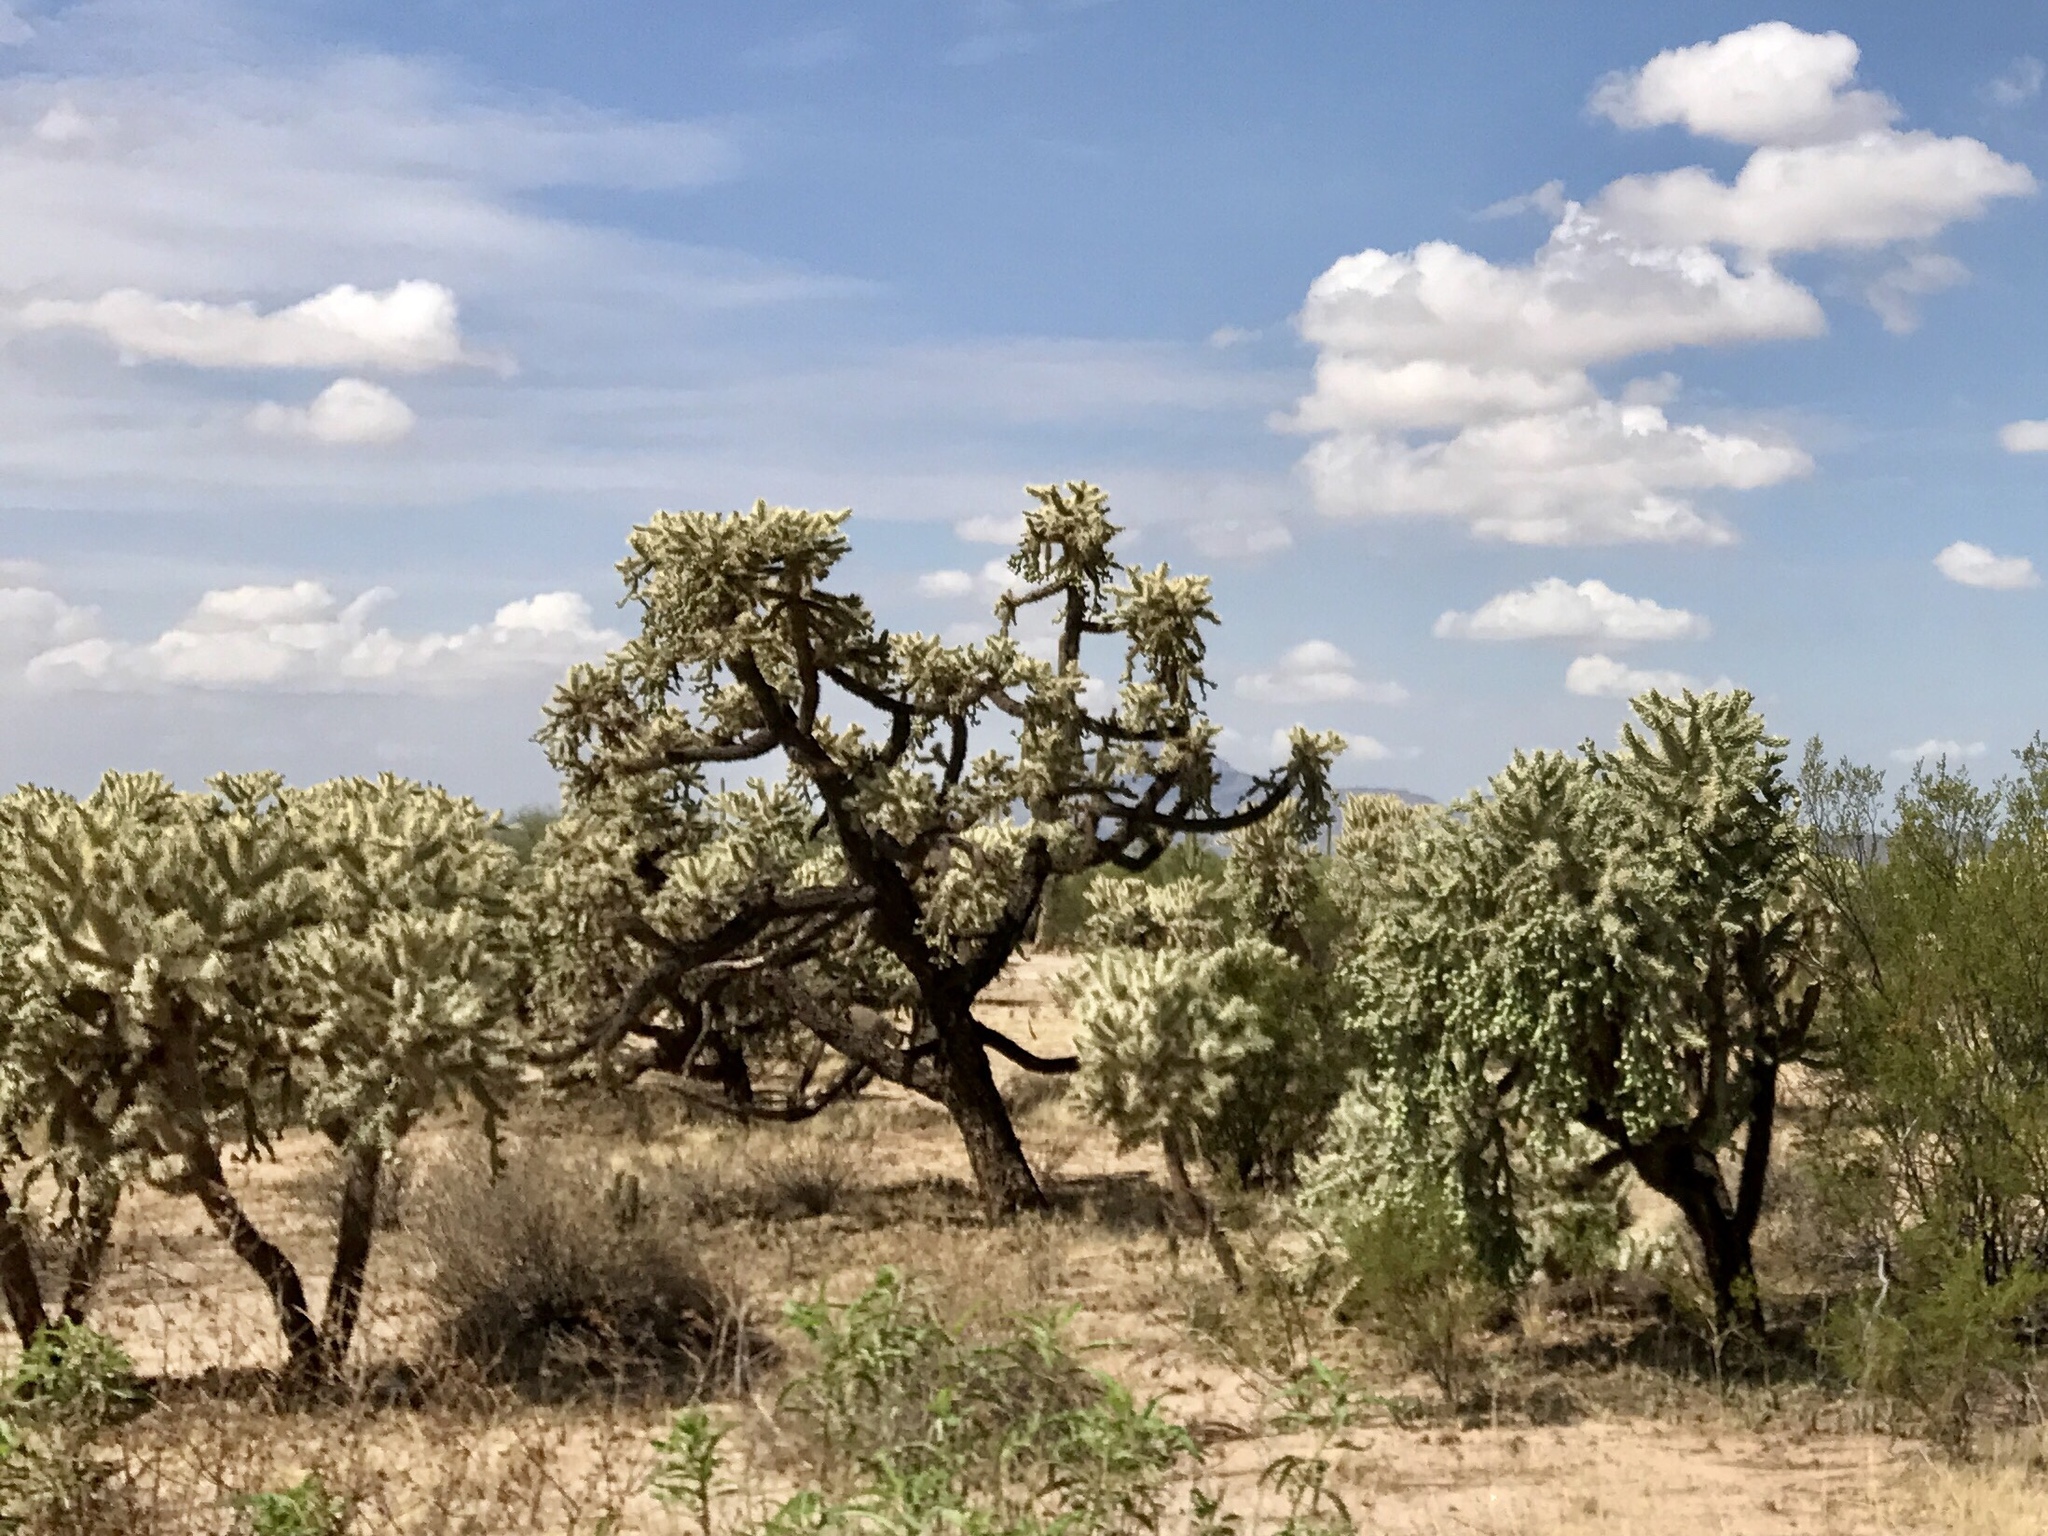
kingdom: Plantae
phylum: Tracheophyta
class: Magnoliopsida
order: Caryophyllales
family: Cactaceae
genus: Cylindropuntia
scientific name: Cylindropuntia fulgida
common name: Jumping cholla
